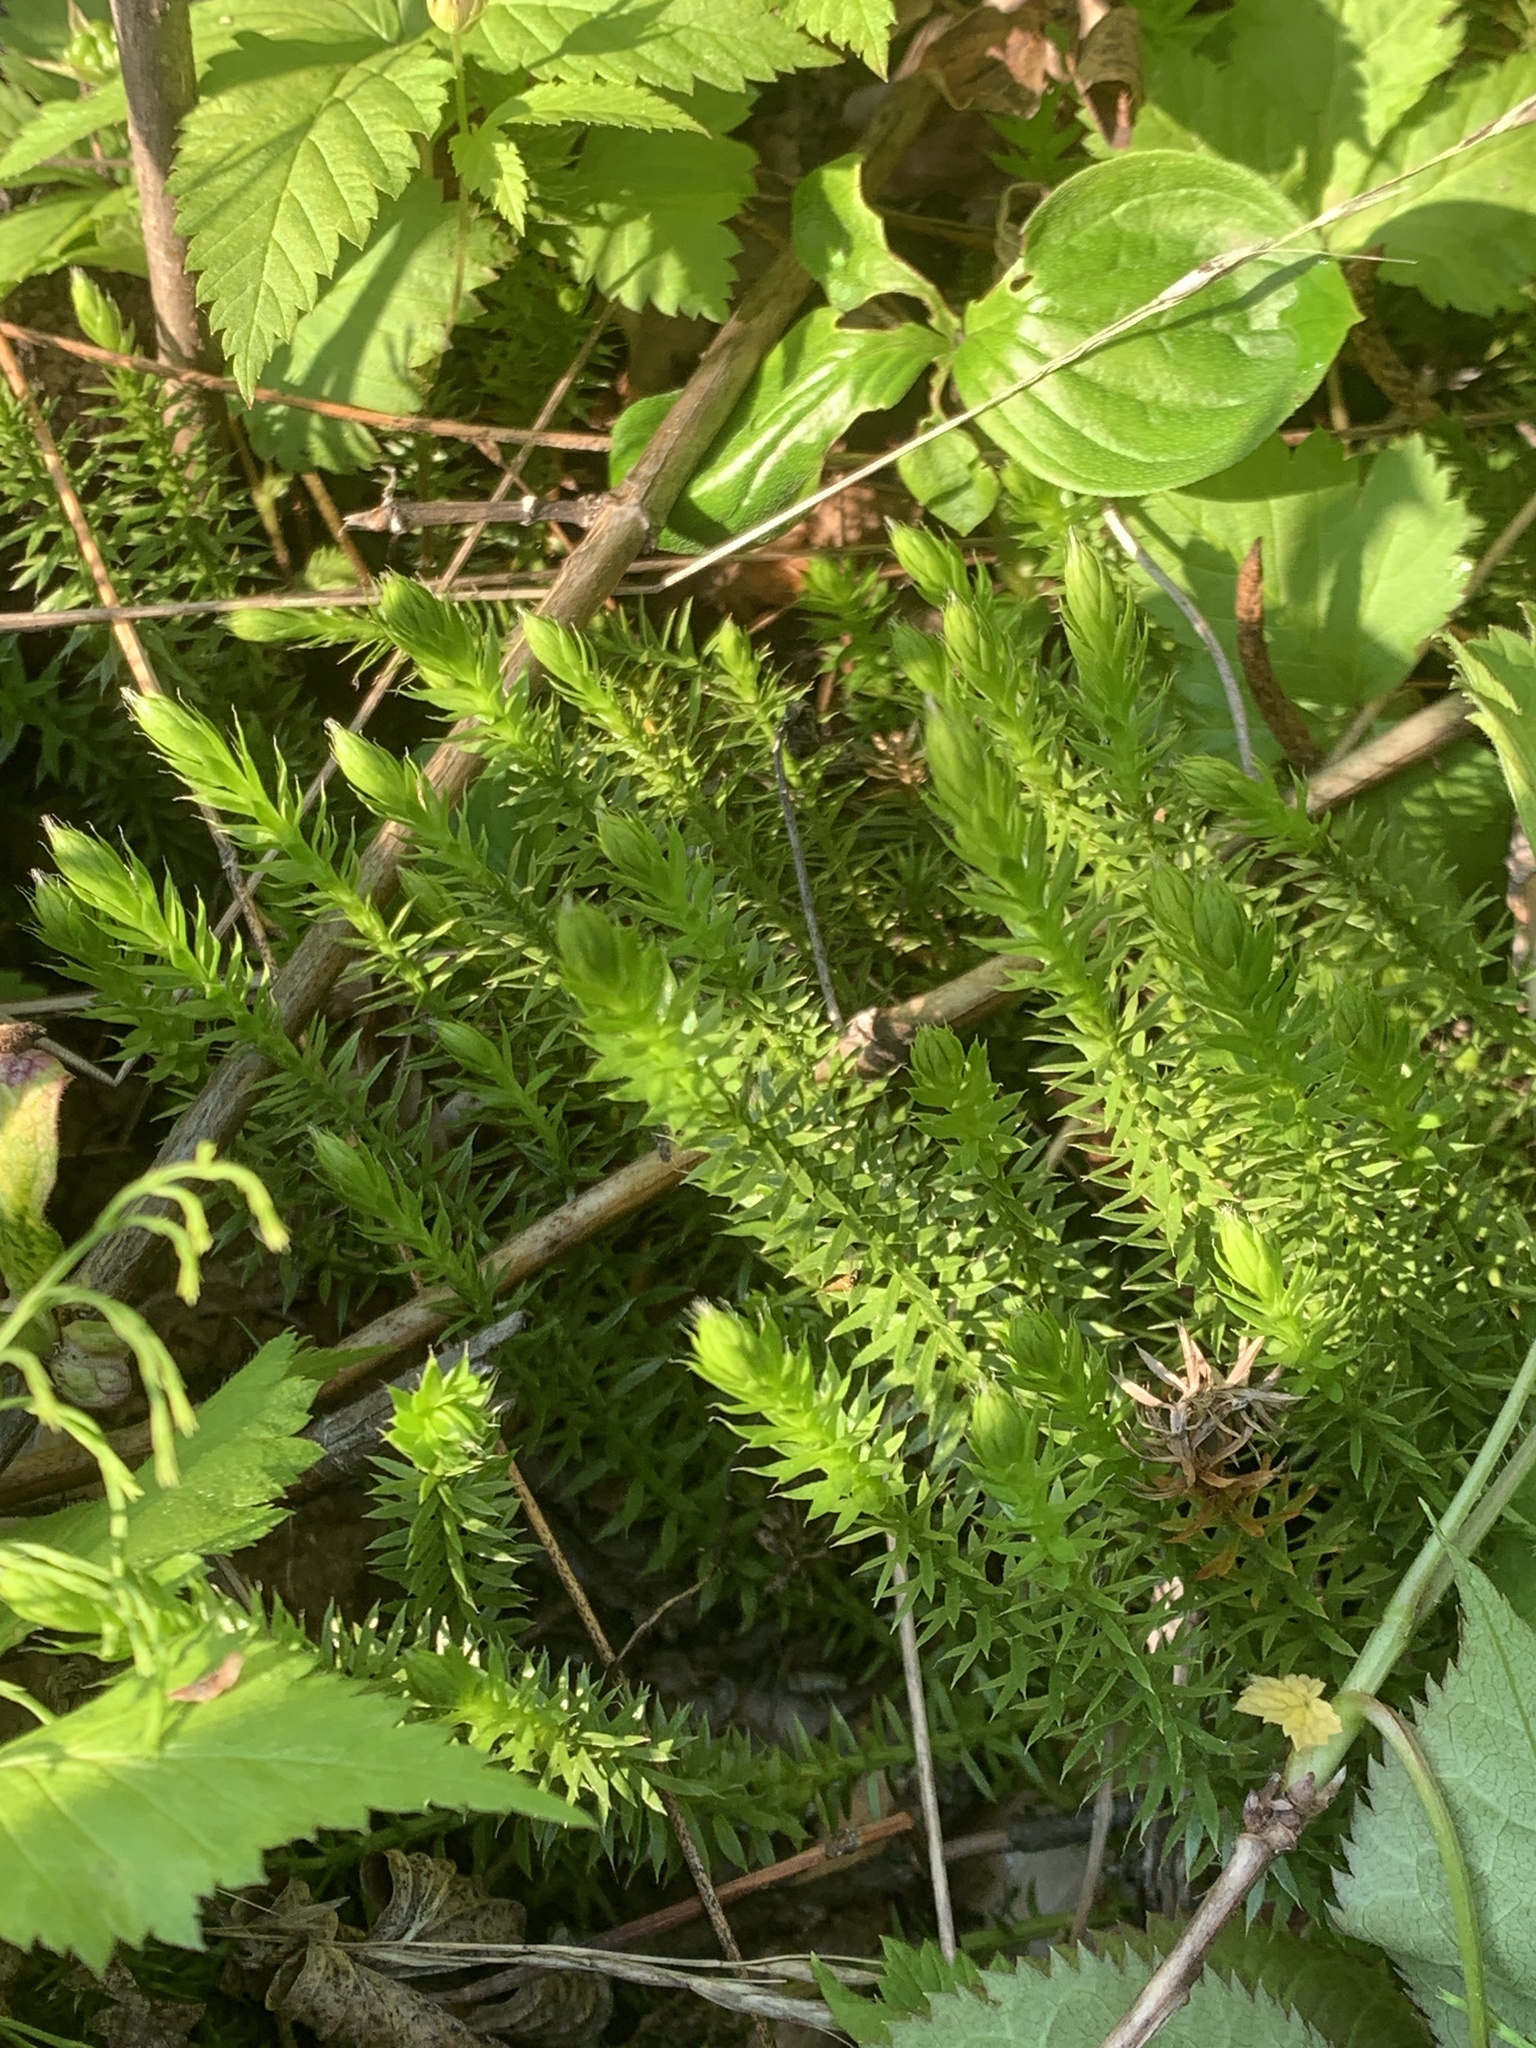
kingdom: Plantae
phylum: Tracheophyta
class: Lycopodiopsida
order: Lycopodiales
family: Lycopodiaceae
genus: Spinulum
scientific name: Spinulum annotinum
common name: Interrupted club-moss
